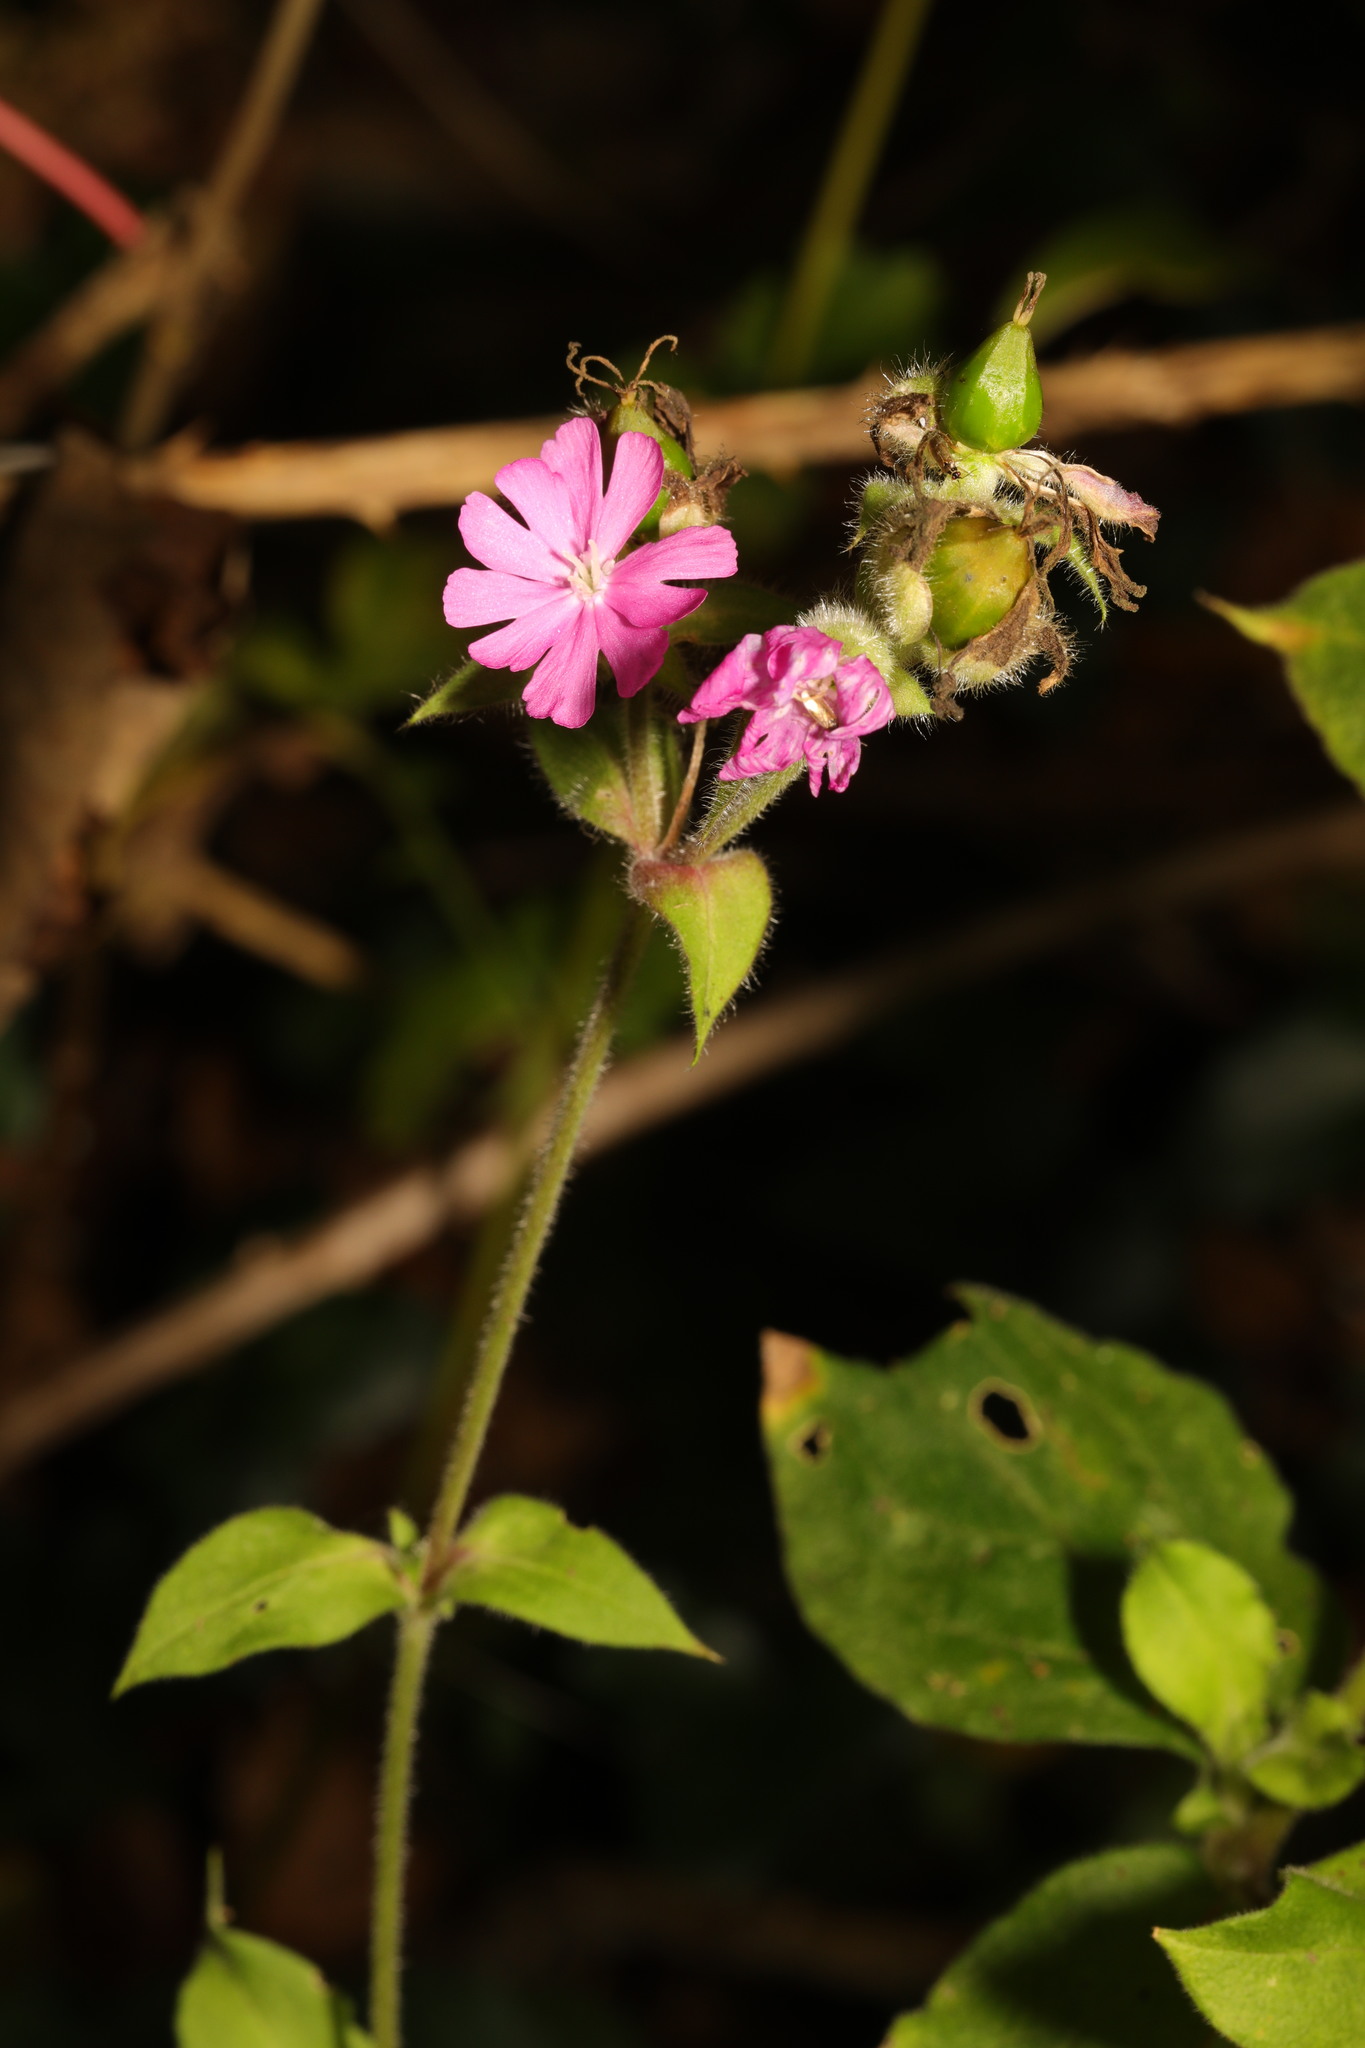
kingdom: Plantae
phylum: Tracheophyta
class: Magnoliopsida
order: Caryophyllales
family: Caryophyllaceae
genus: Silene
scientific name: Silene dioica
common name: Red campion
